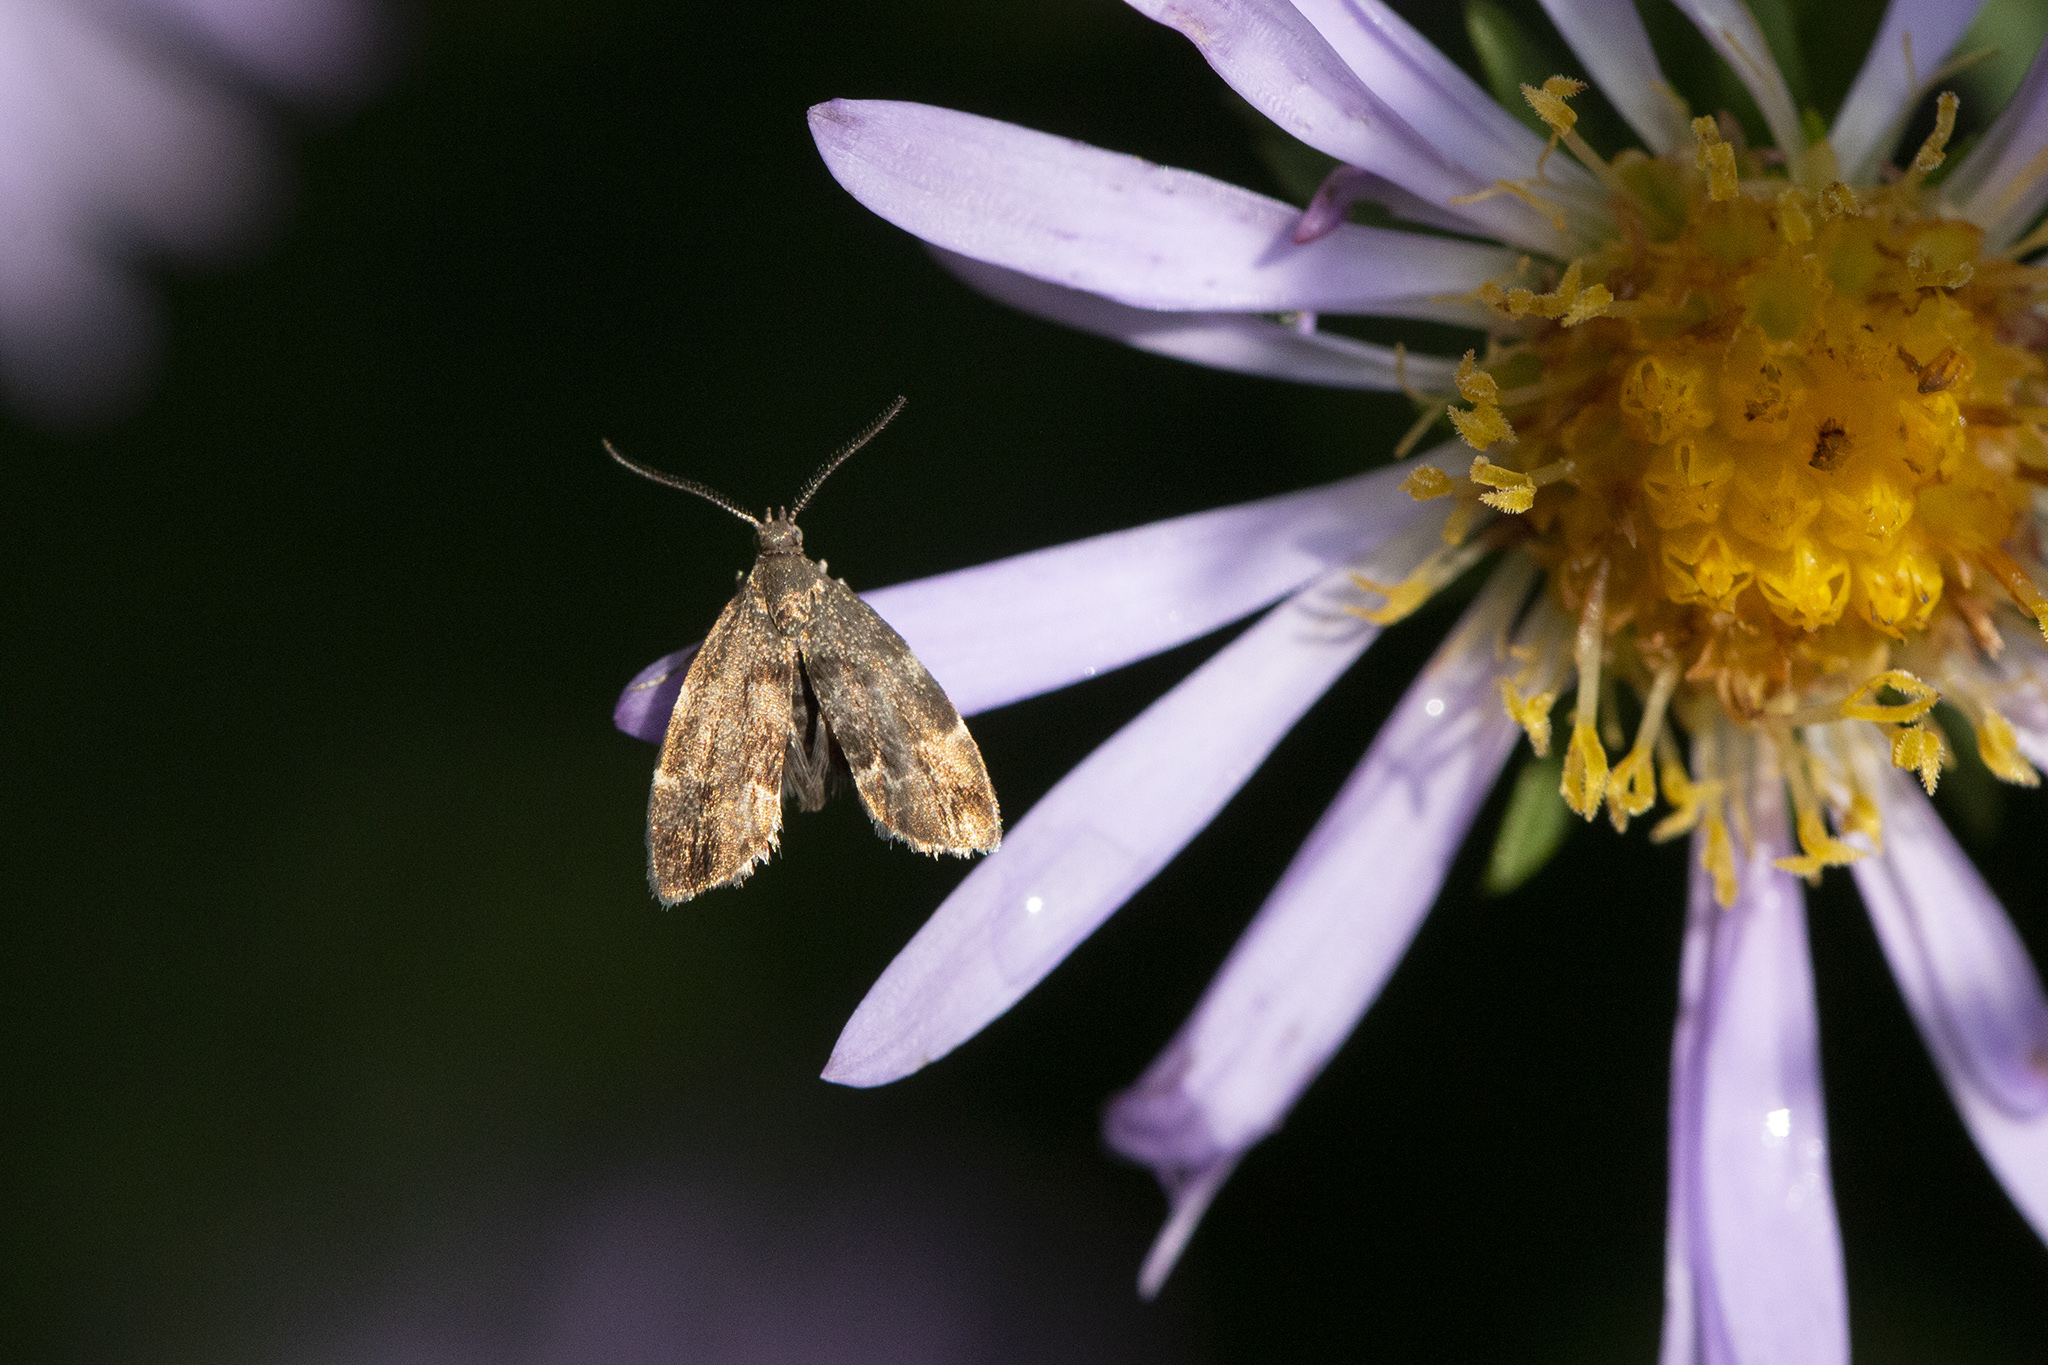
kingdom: Animalia
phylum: Arthropoda
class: Insecta
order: Lepidoptera
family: Choreutidae
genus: Anthophila
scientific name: Anthophila fabriciana
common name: Nettle-tap
